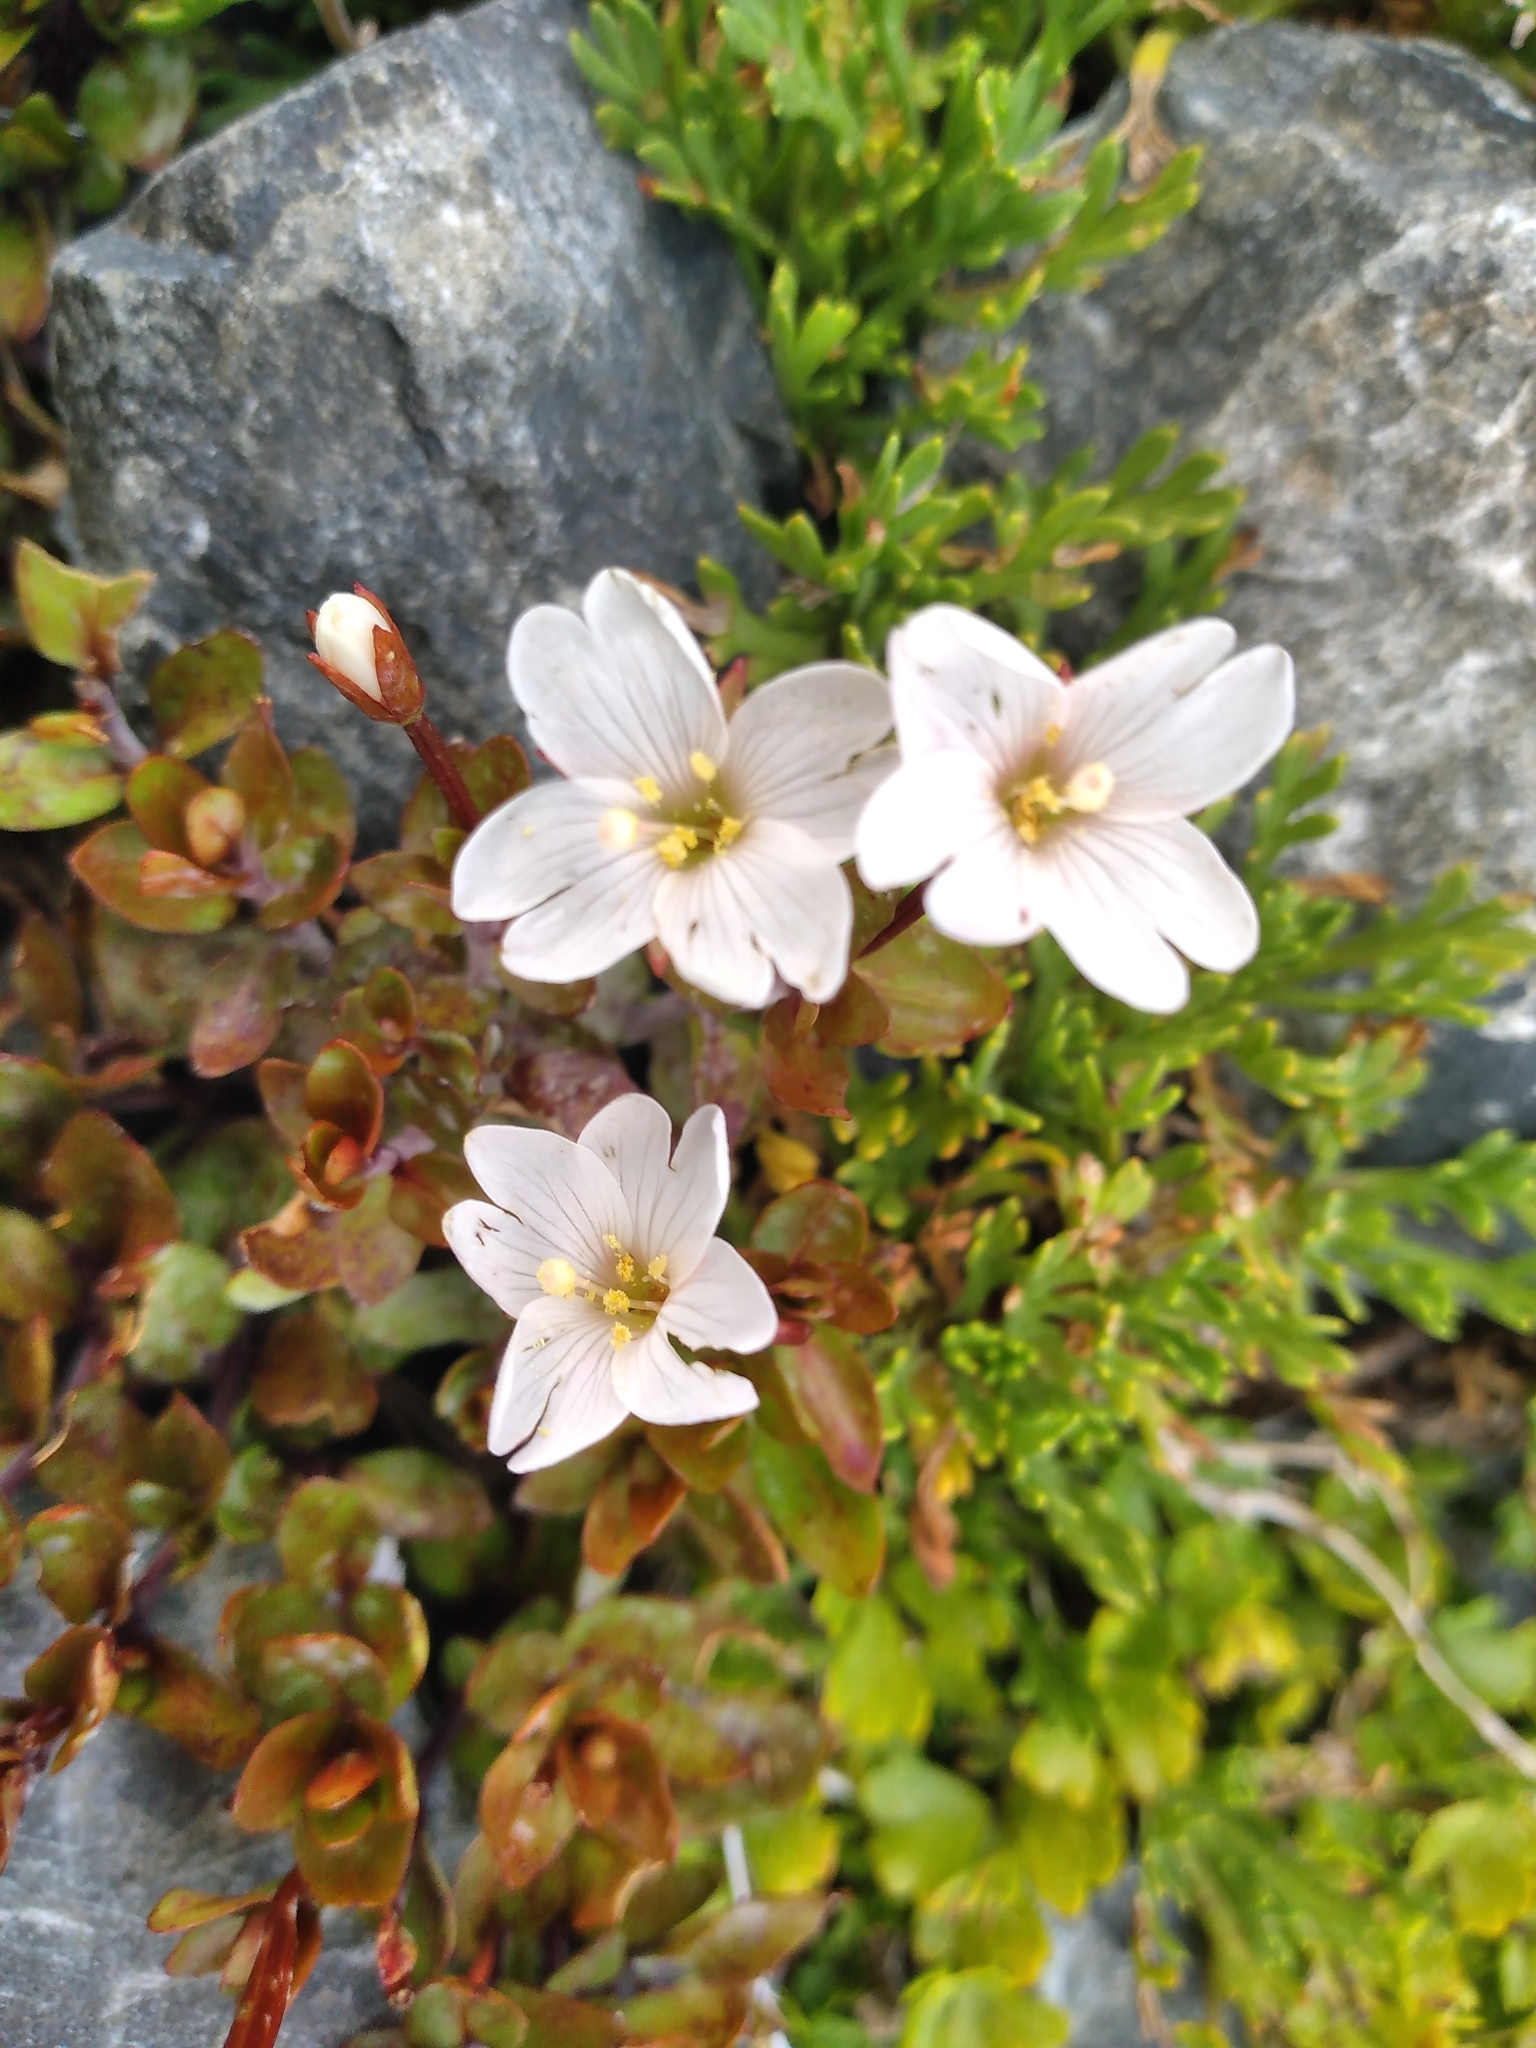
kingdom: Plantae
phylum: Tracheophyta
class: Magnoliopsida
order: Myrtales
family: Onagraceae
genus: Epilobium
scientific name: Epilobium macropus
